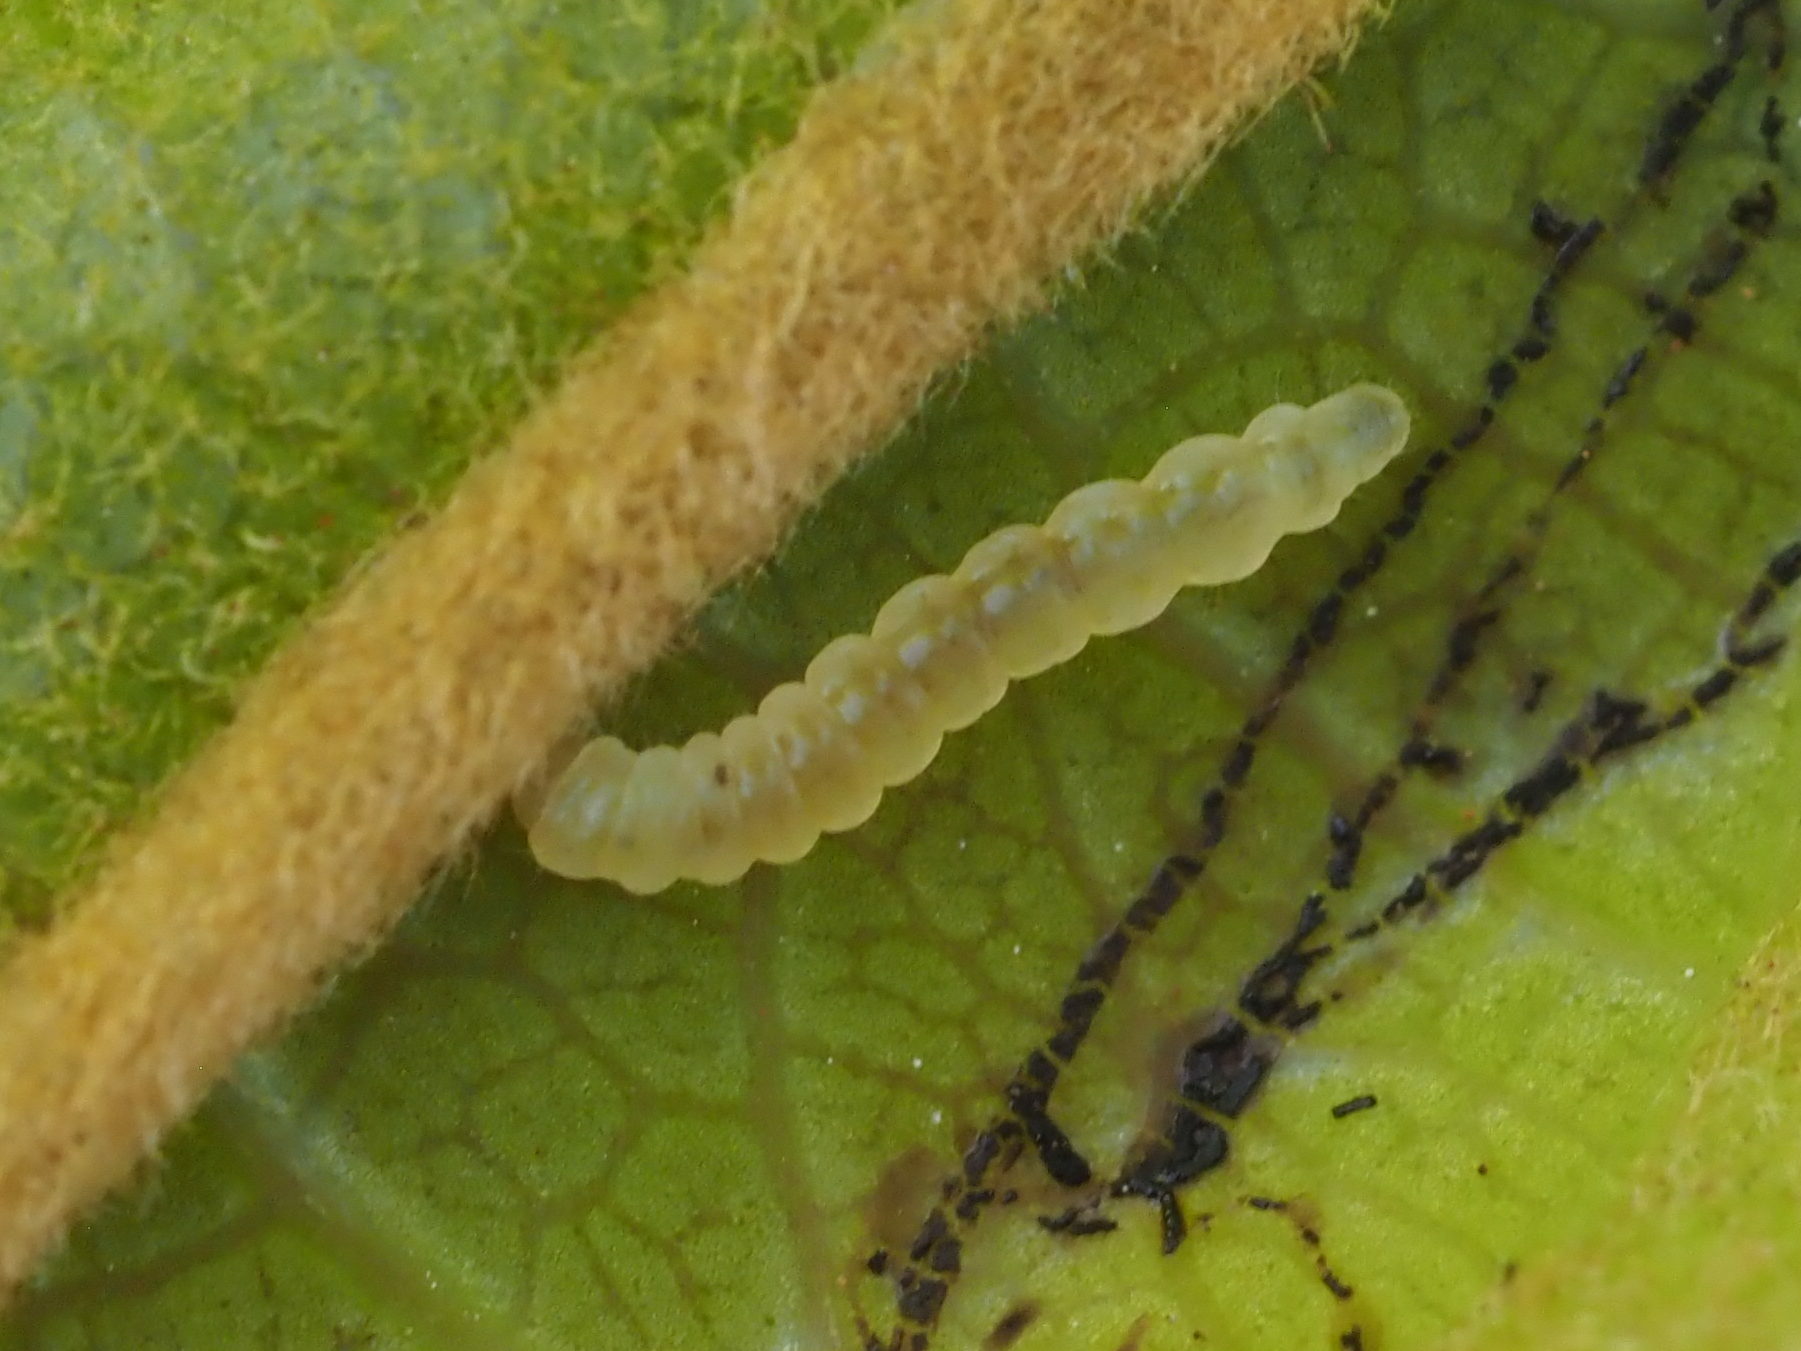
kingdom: Animalia
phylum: Arthropoda
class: Insecta
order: Lepidoptera
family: Gracillariidae
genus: Ketapangia
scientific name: Ketapangia leucochorda
